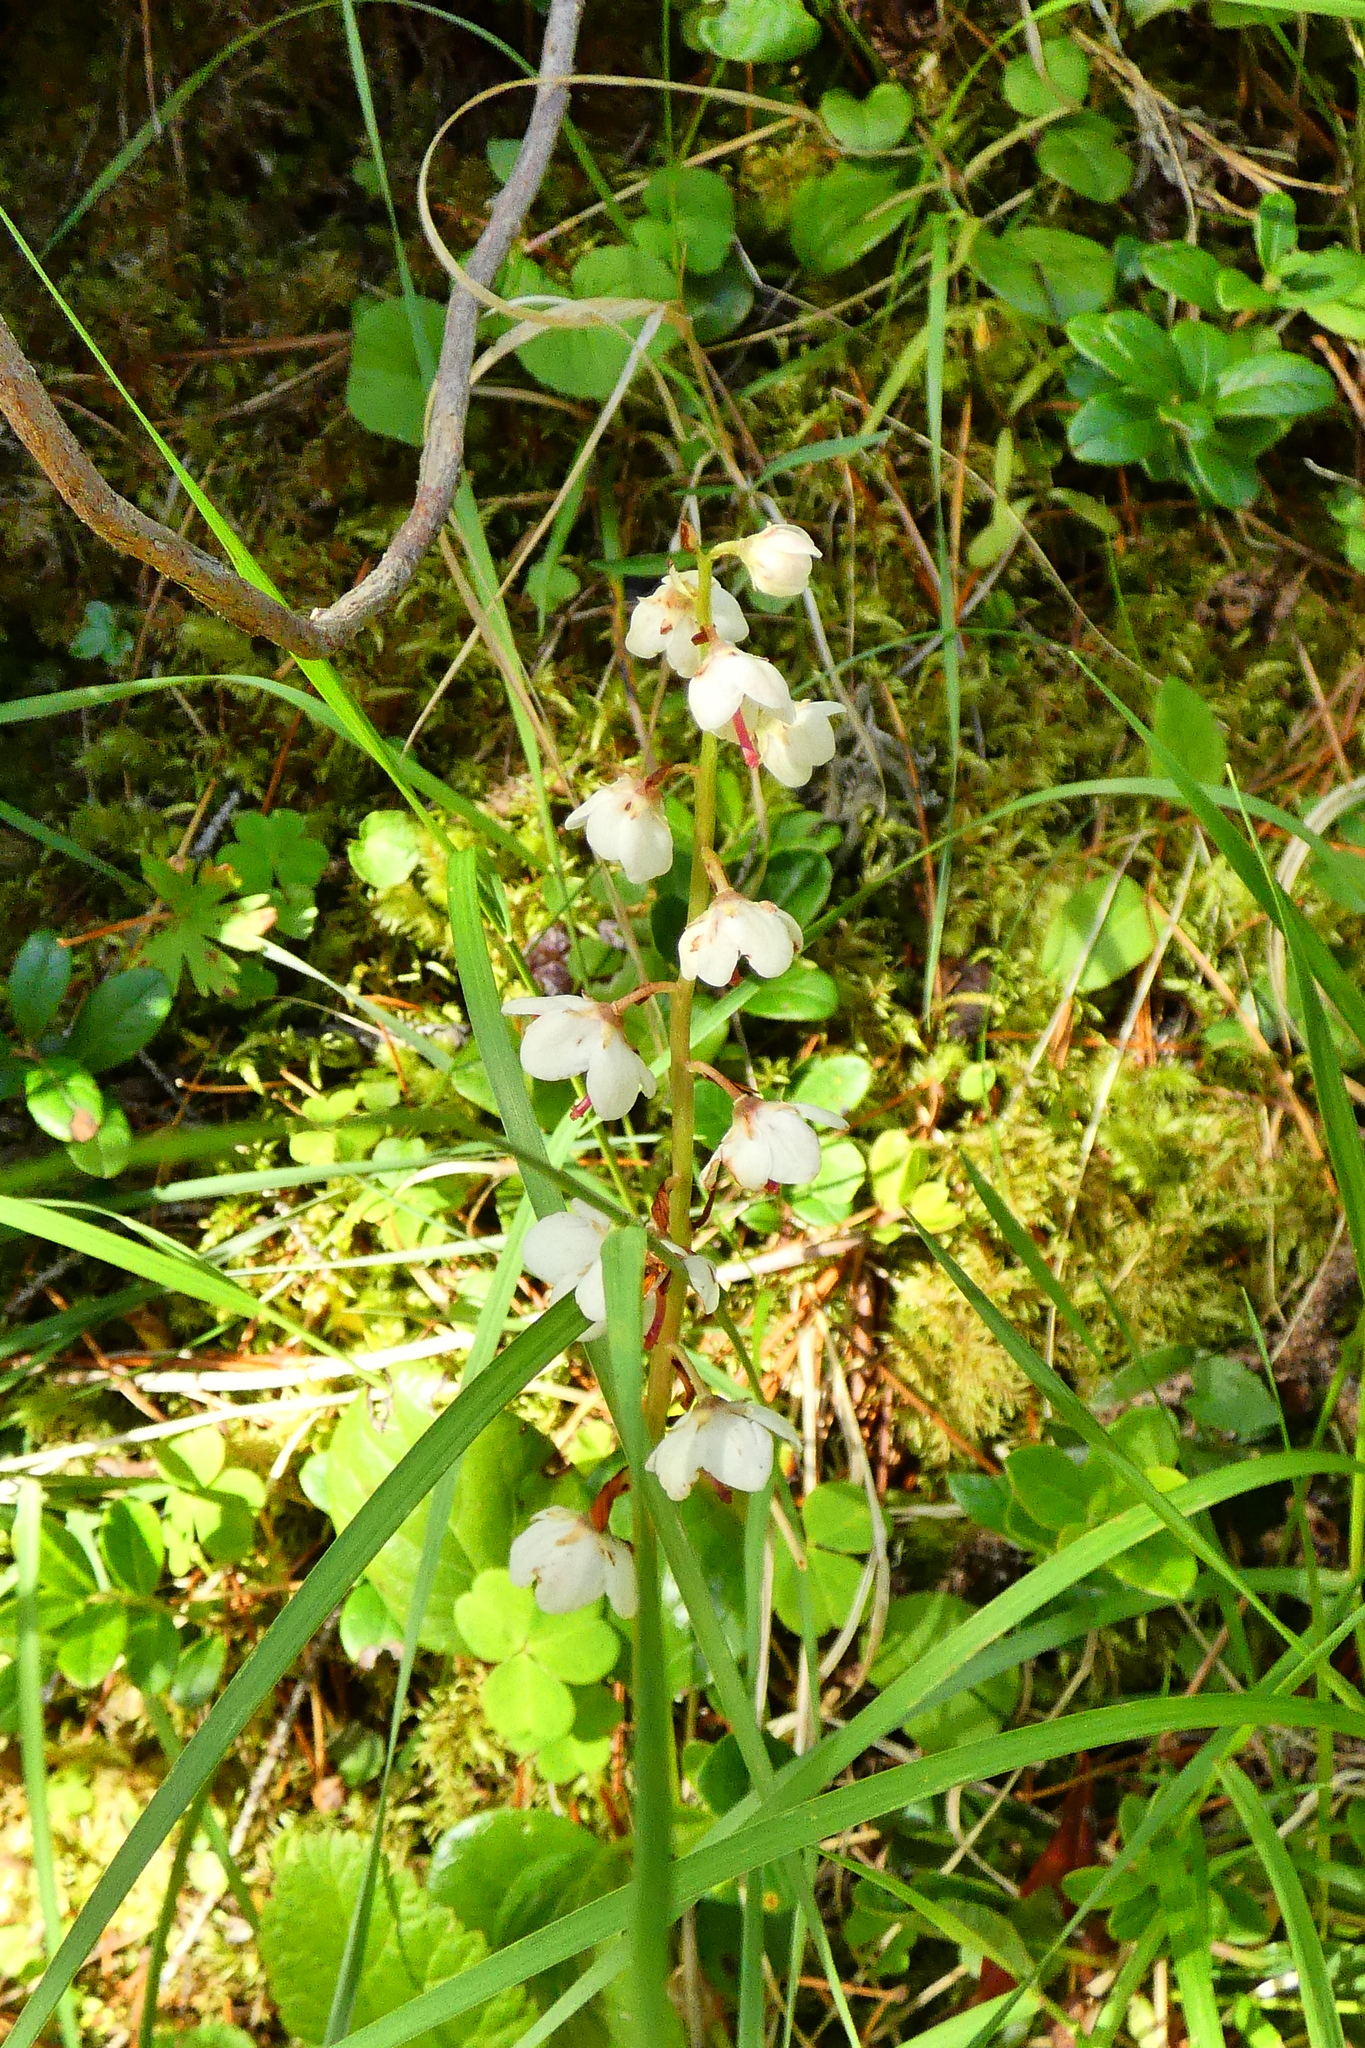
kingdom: Plantae
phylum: Tracheophyta
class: Magnoliopsida
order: Ericales
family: Ericaceae
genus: Pyrola
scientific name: Pyrola rotundifolia
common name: Round-leaved wintergreen
